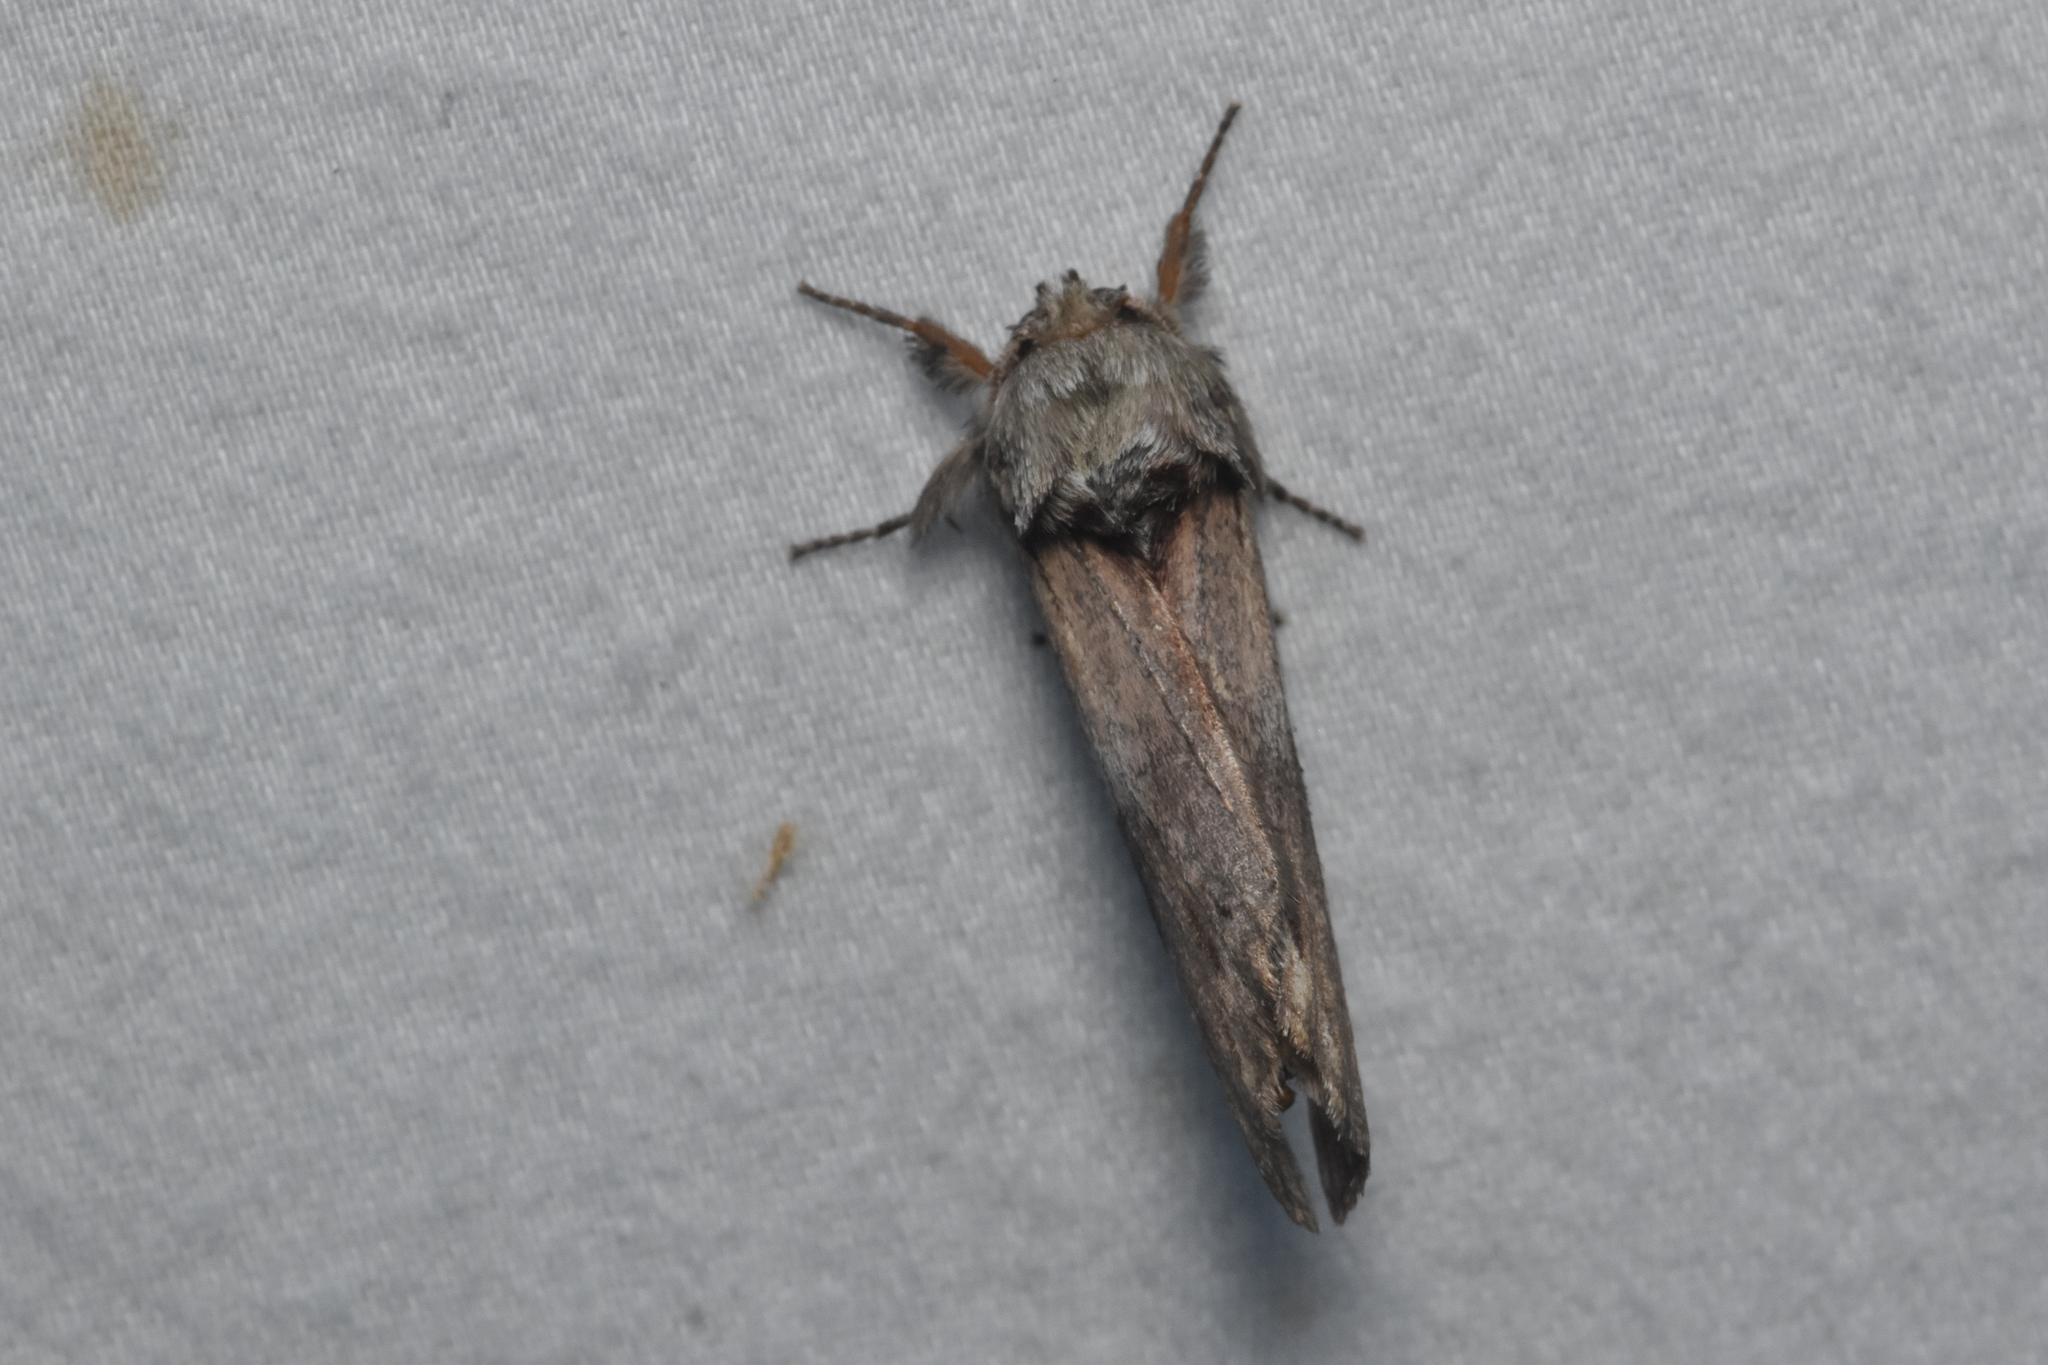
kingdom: Animalia
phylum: Arthropoda
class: Insecta
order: Lepidoptera
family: Notodontidae
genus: Schizura
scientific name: Schizura
